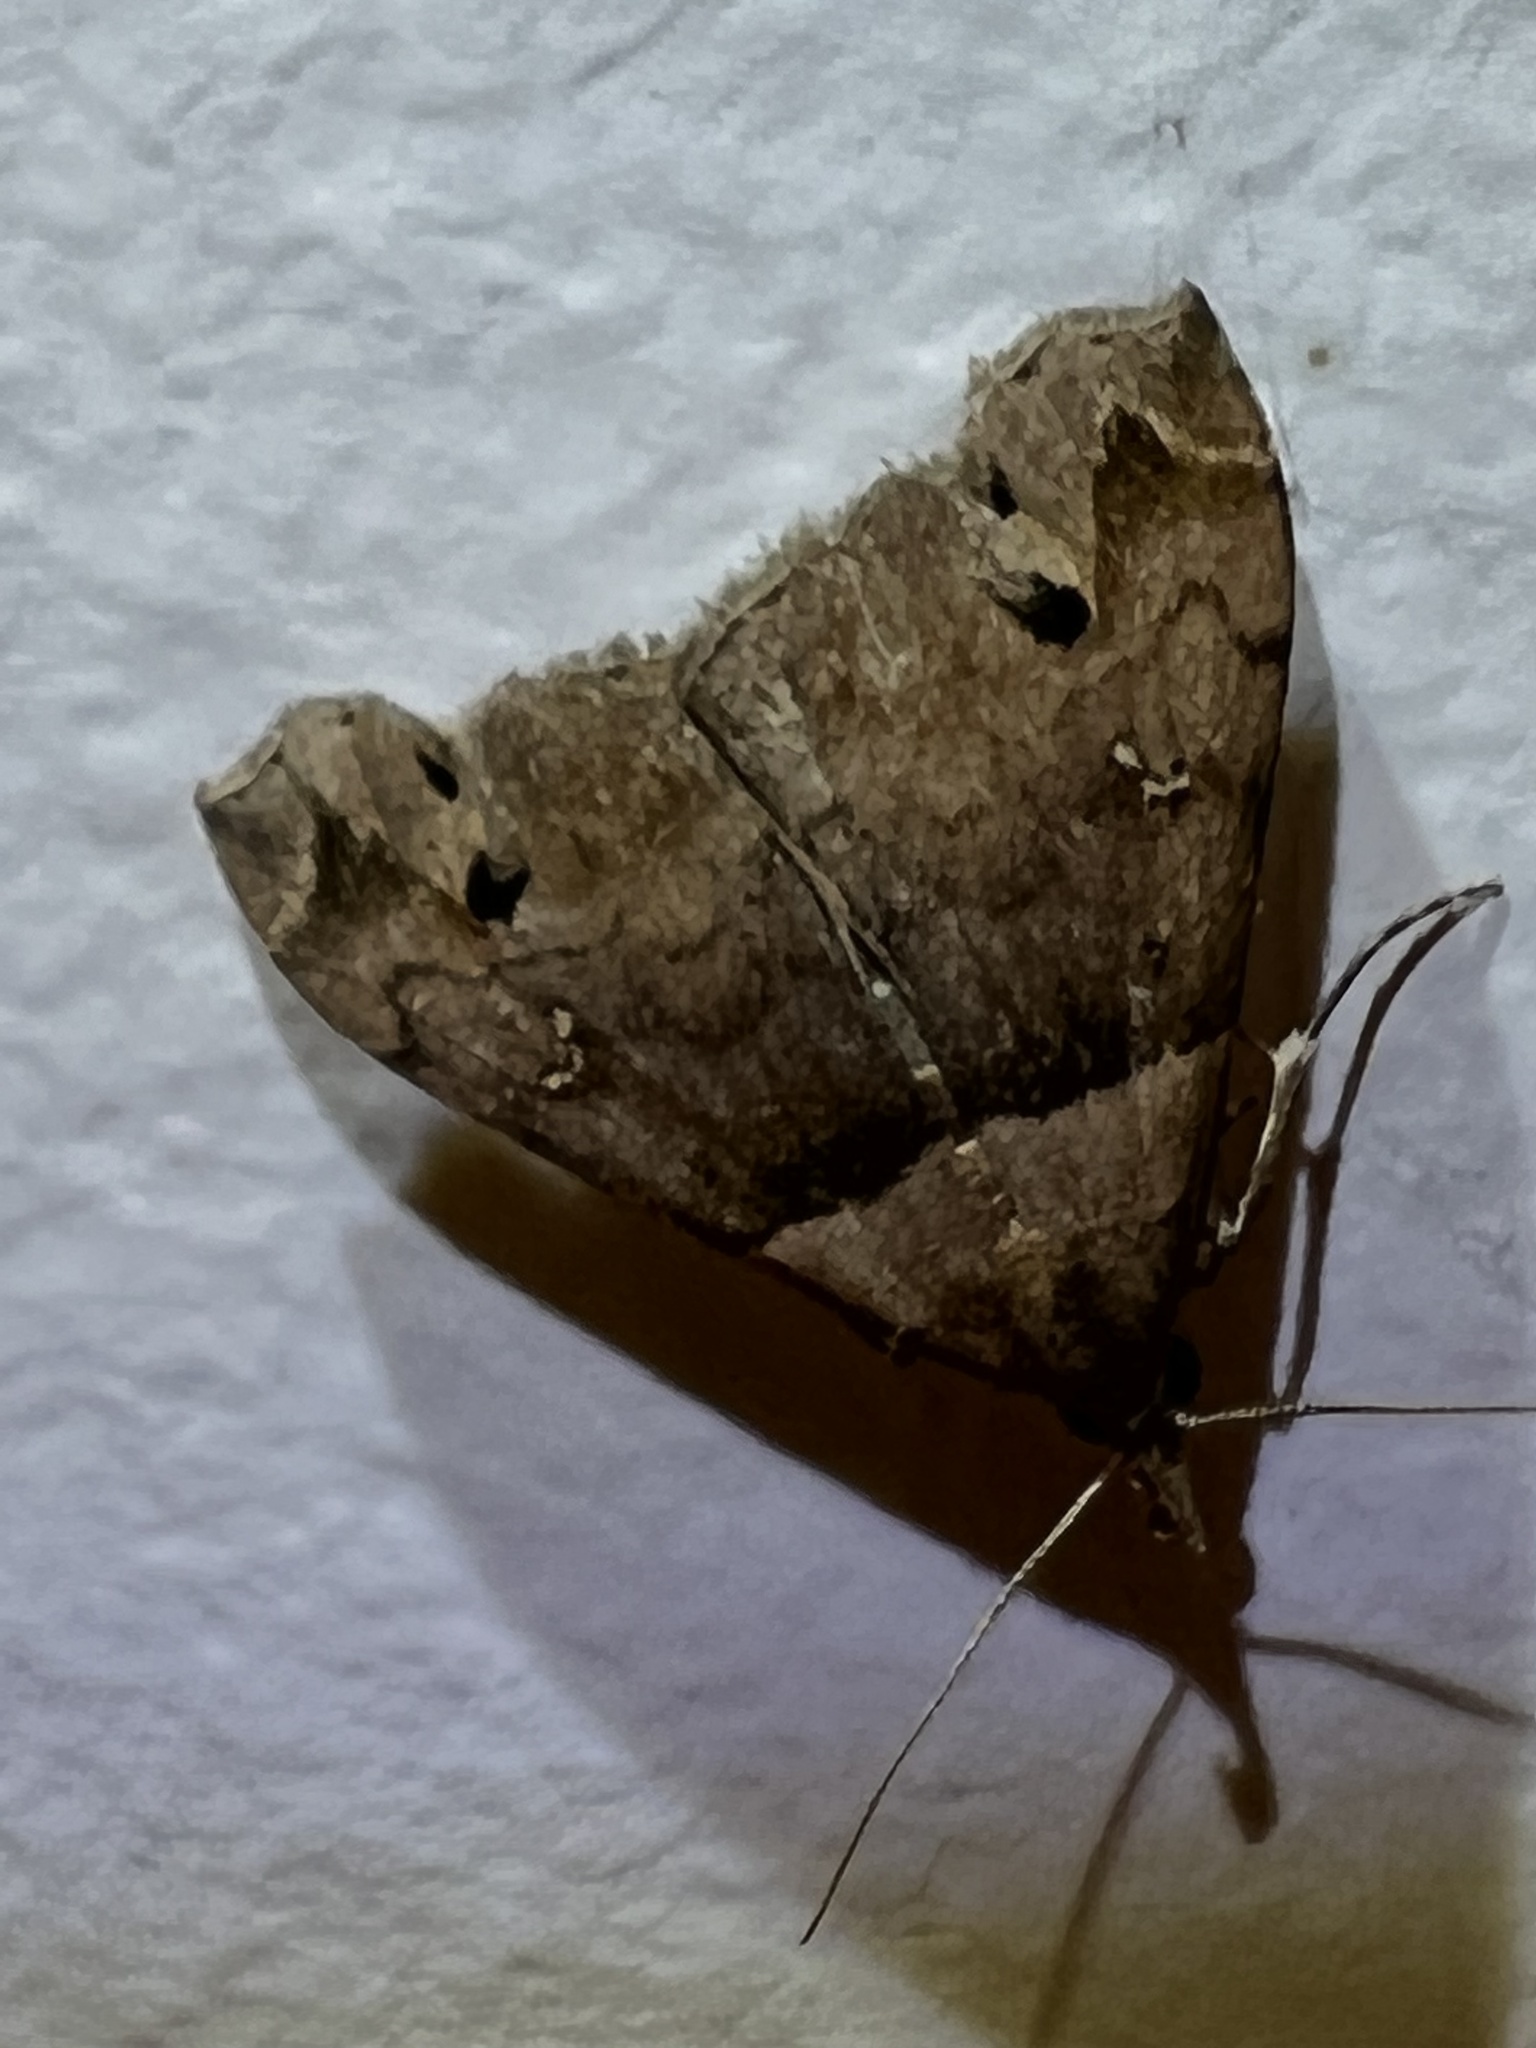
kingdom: Animalia
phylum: Arthropoda
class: Insecta
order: Lepidoptera
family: Erebidae
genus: Lascoria
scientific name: Lascoria ambigualis
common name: Ambiguous moth
